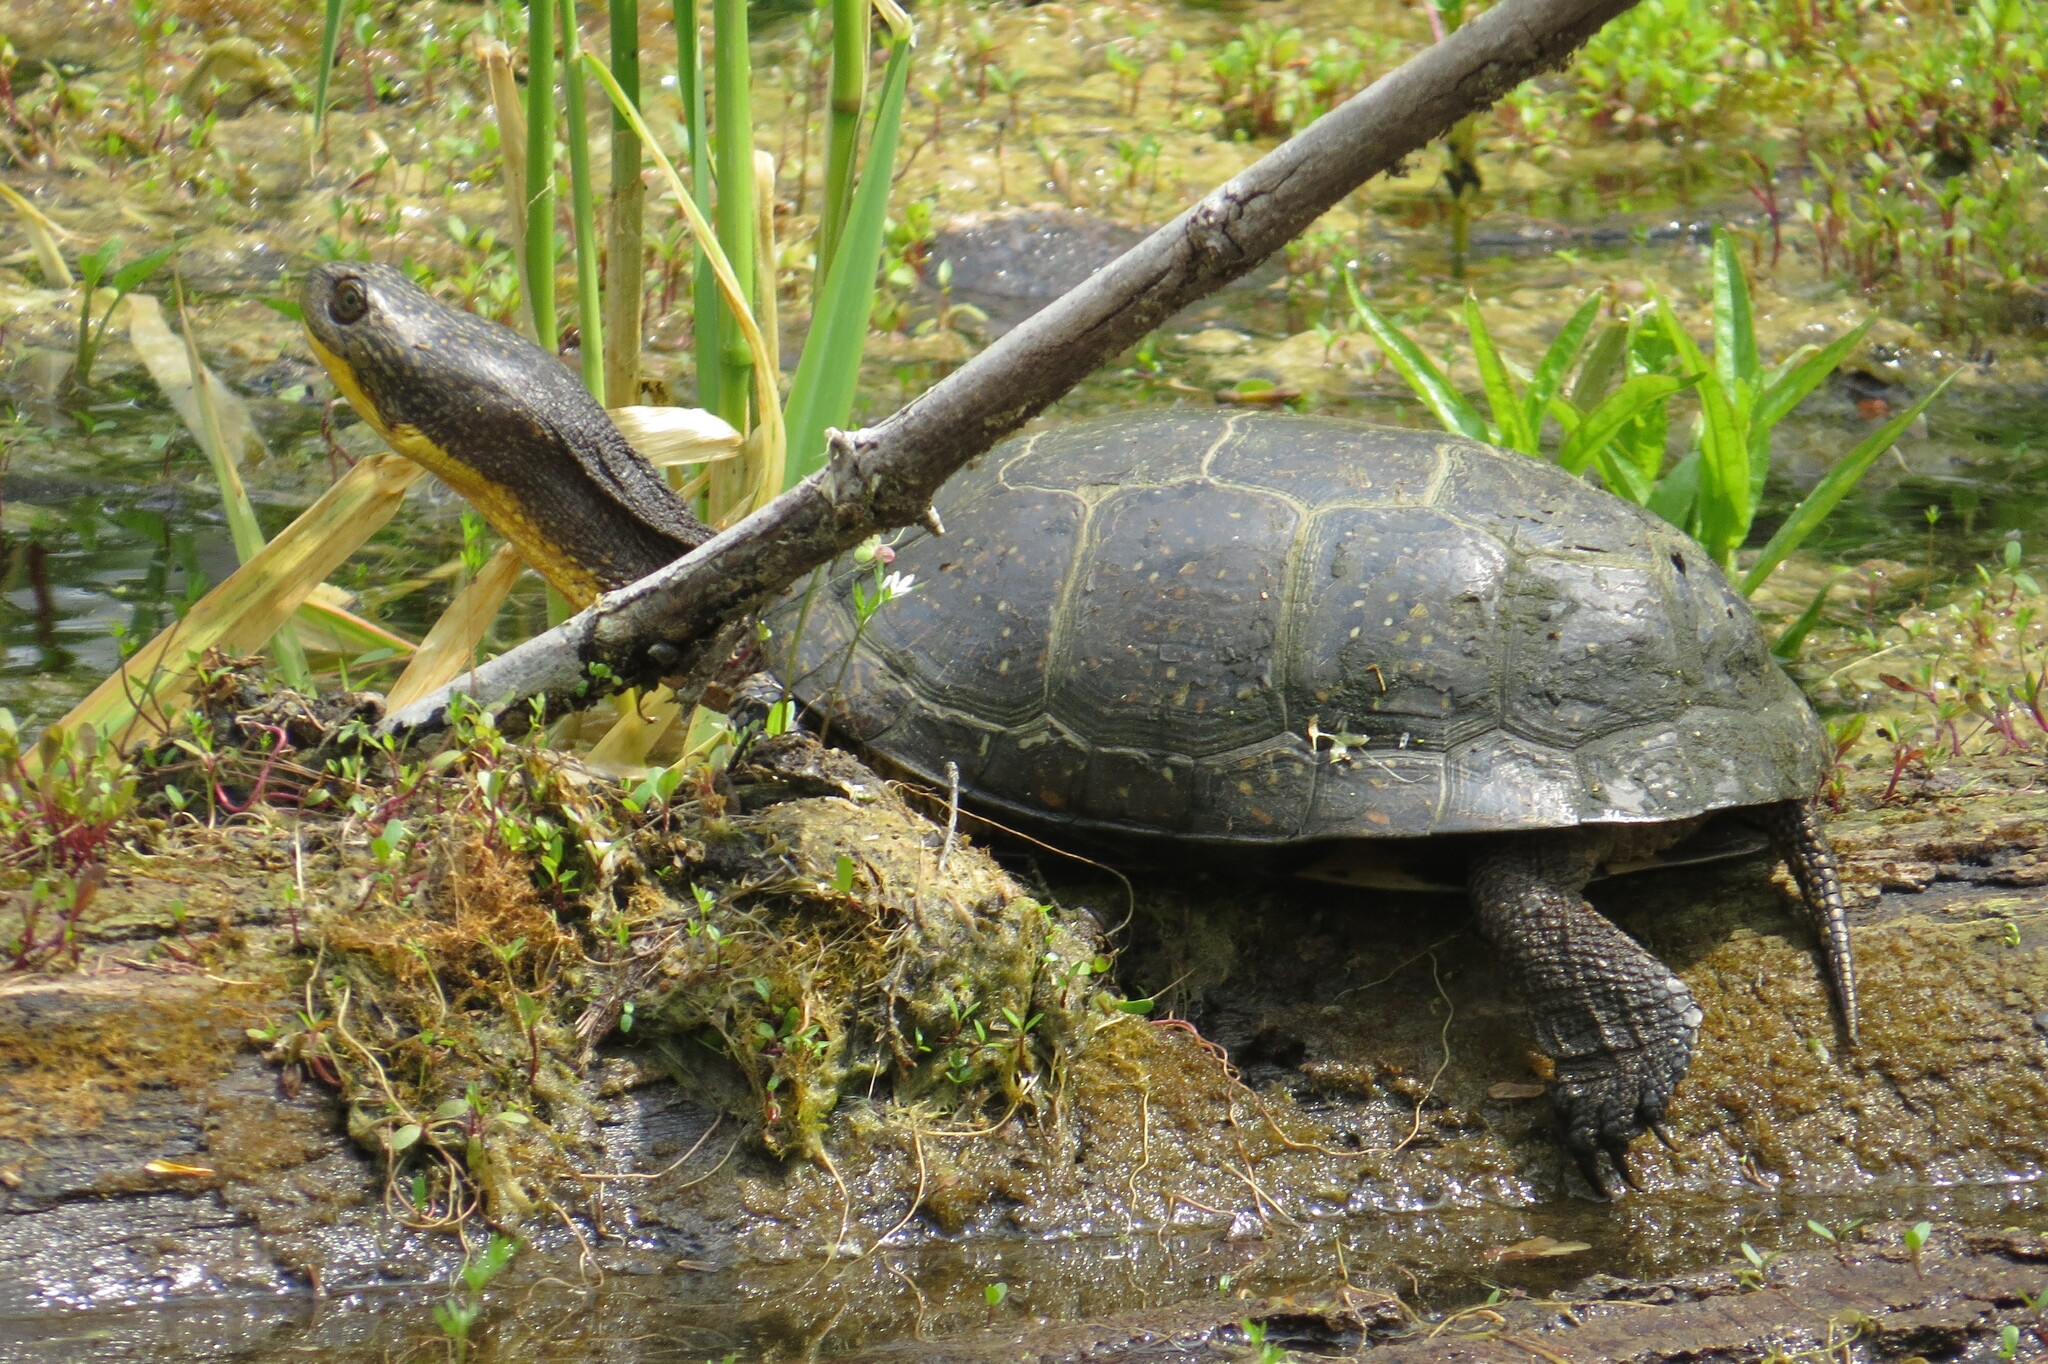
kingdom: Animalia
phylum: Chordata
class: Testudines
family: Emydidae
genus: Emys
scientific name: Emys blandingii
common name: Blanding's turtle
